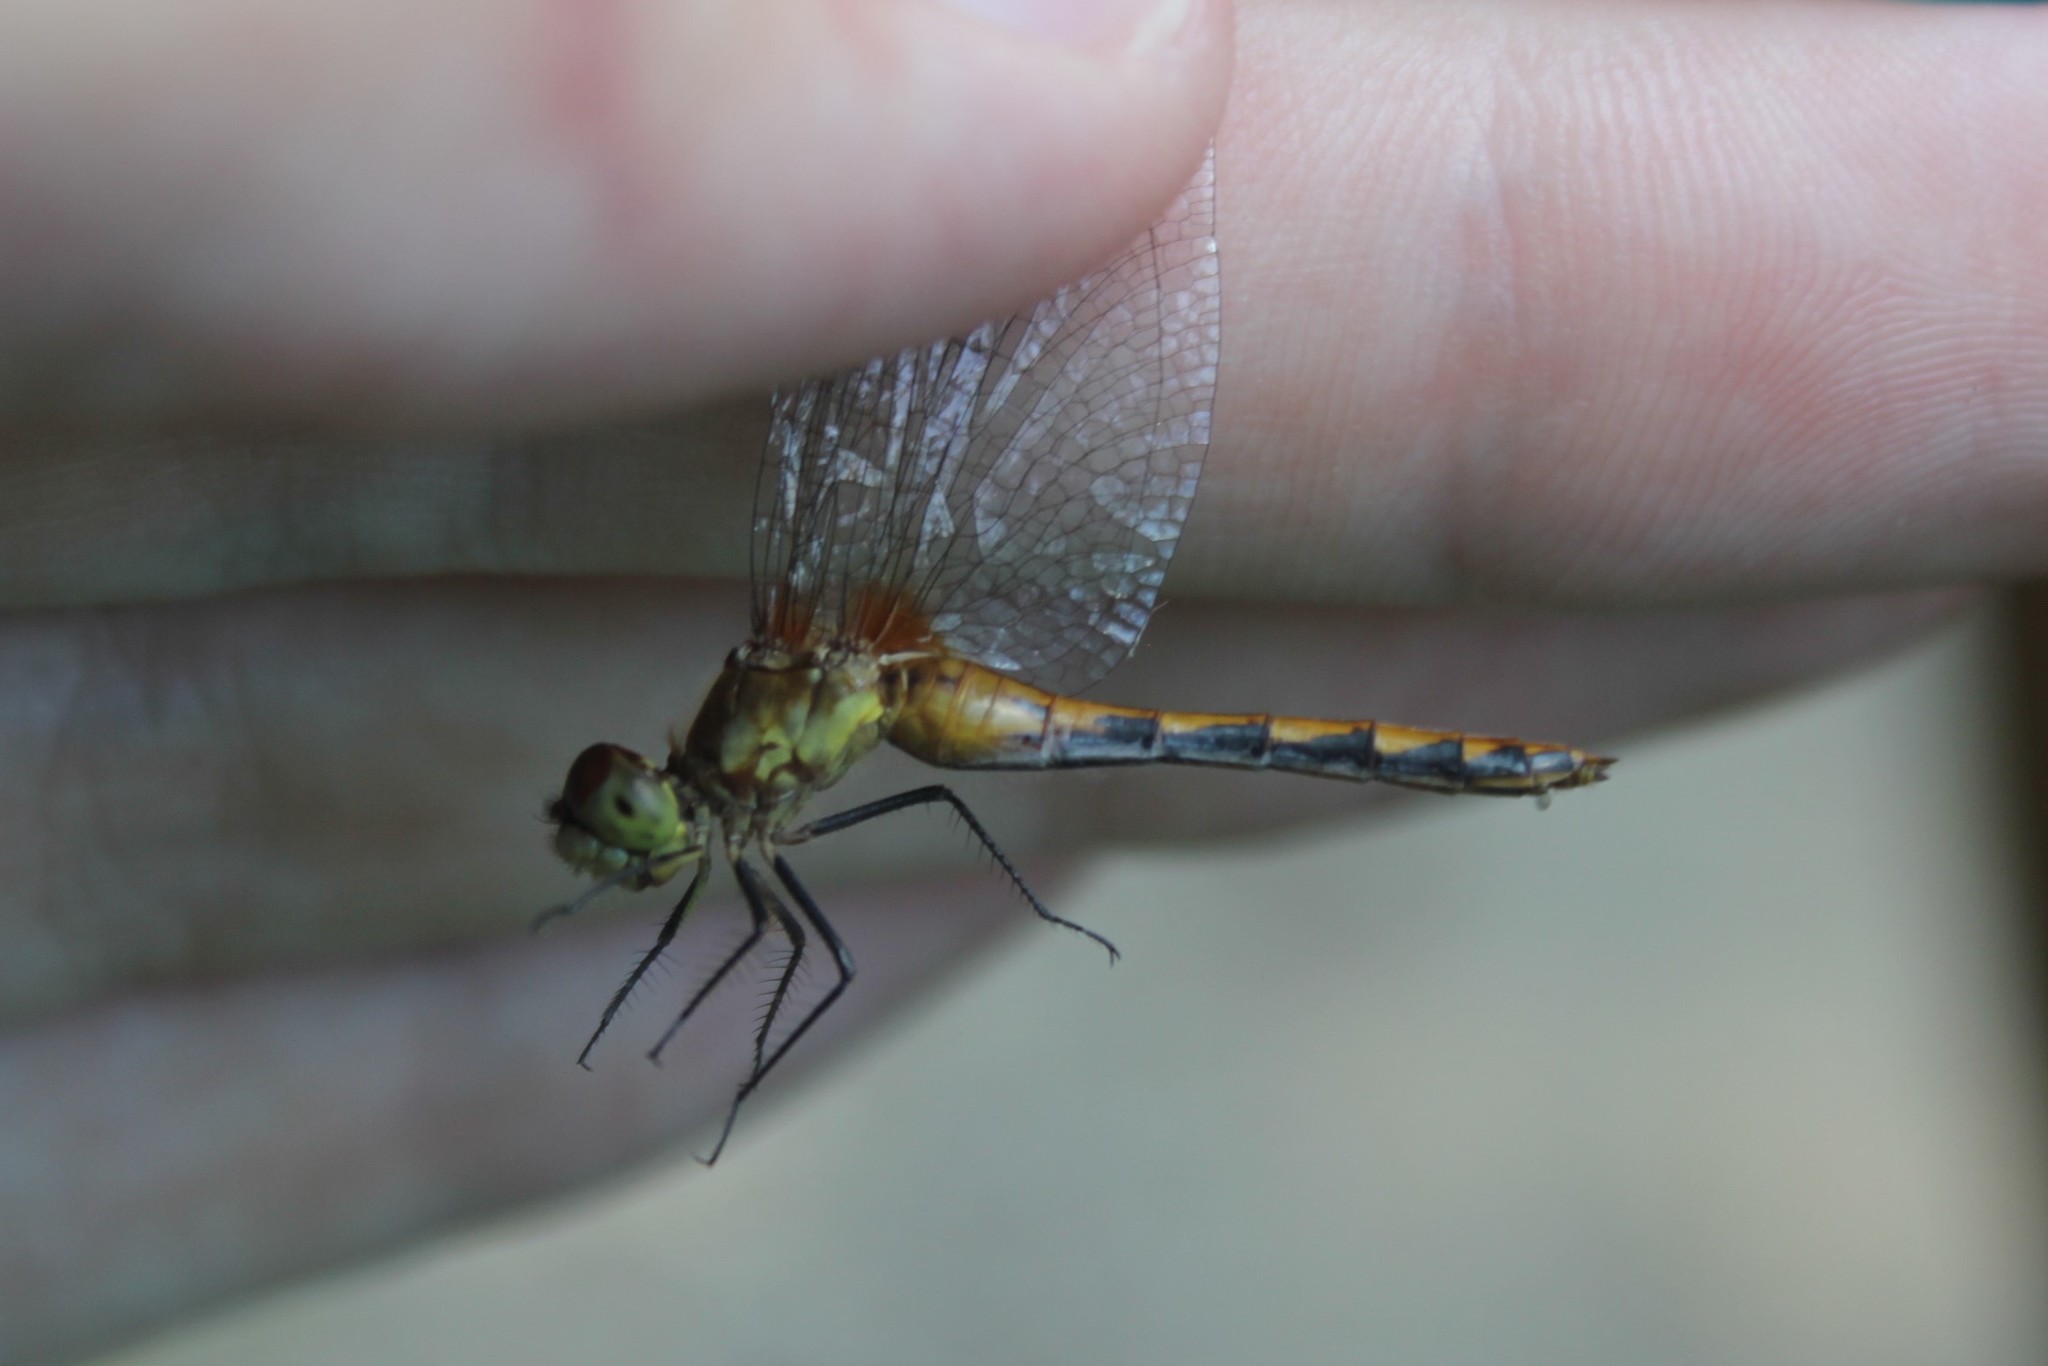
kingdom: Animalia
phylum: Arthropoda
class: Insecta
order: Odonata
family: Libellulidae
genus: Sympetrum
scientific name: Sympetrum obtrusum
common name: White-faced meadowhawk
